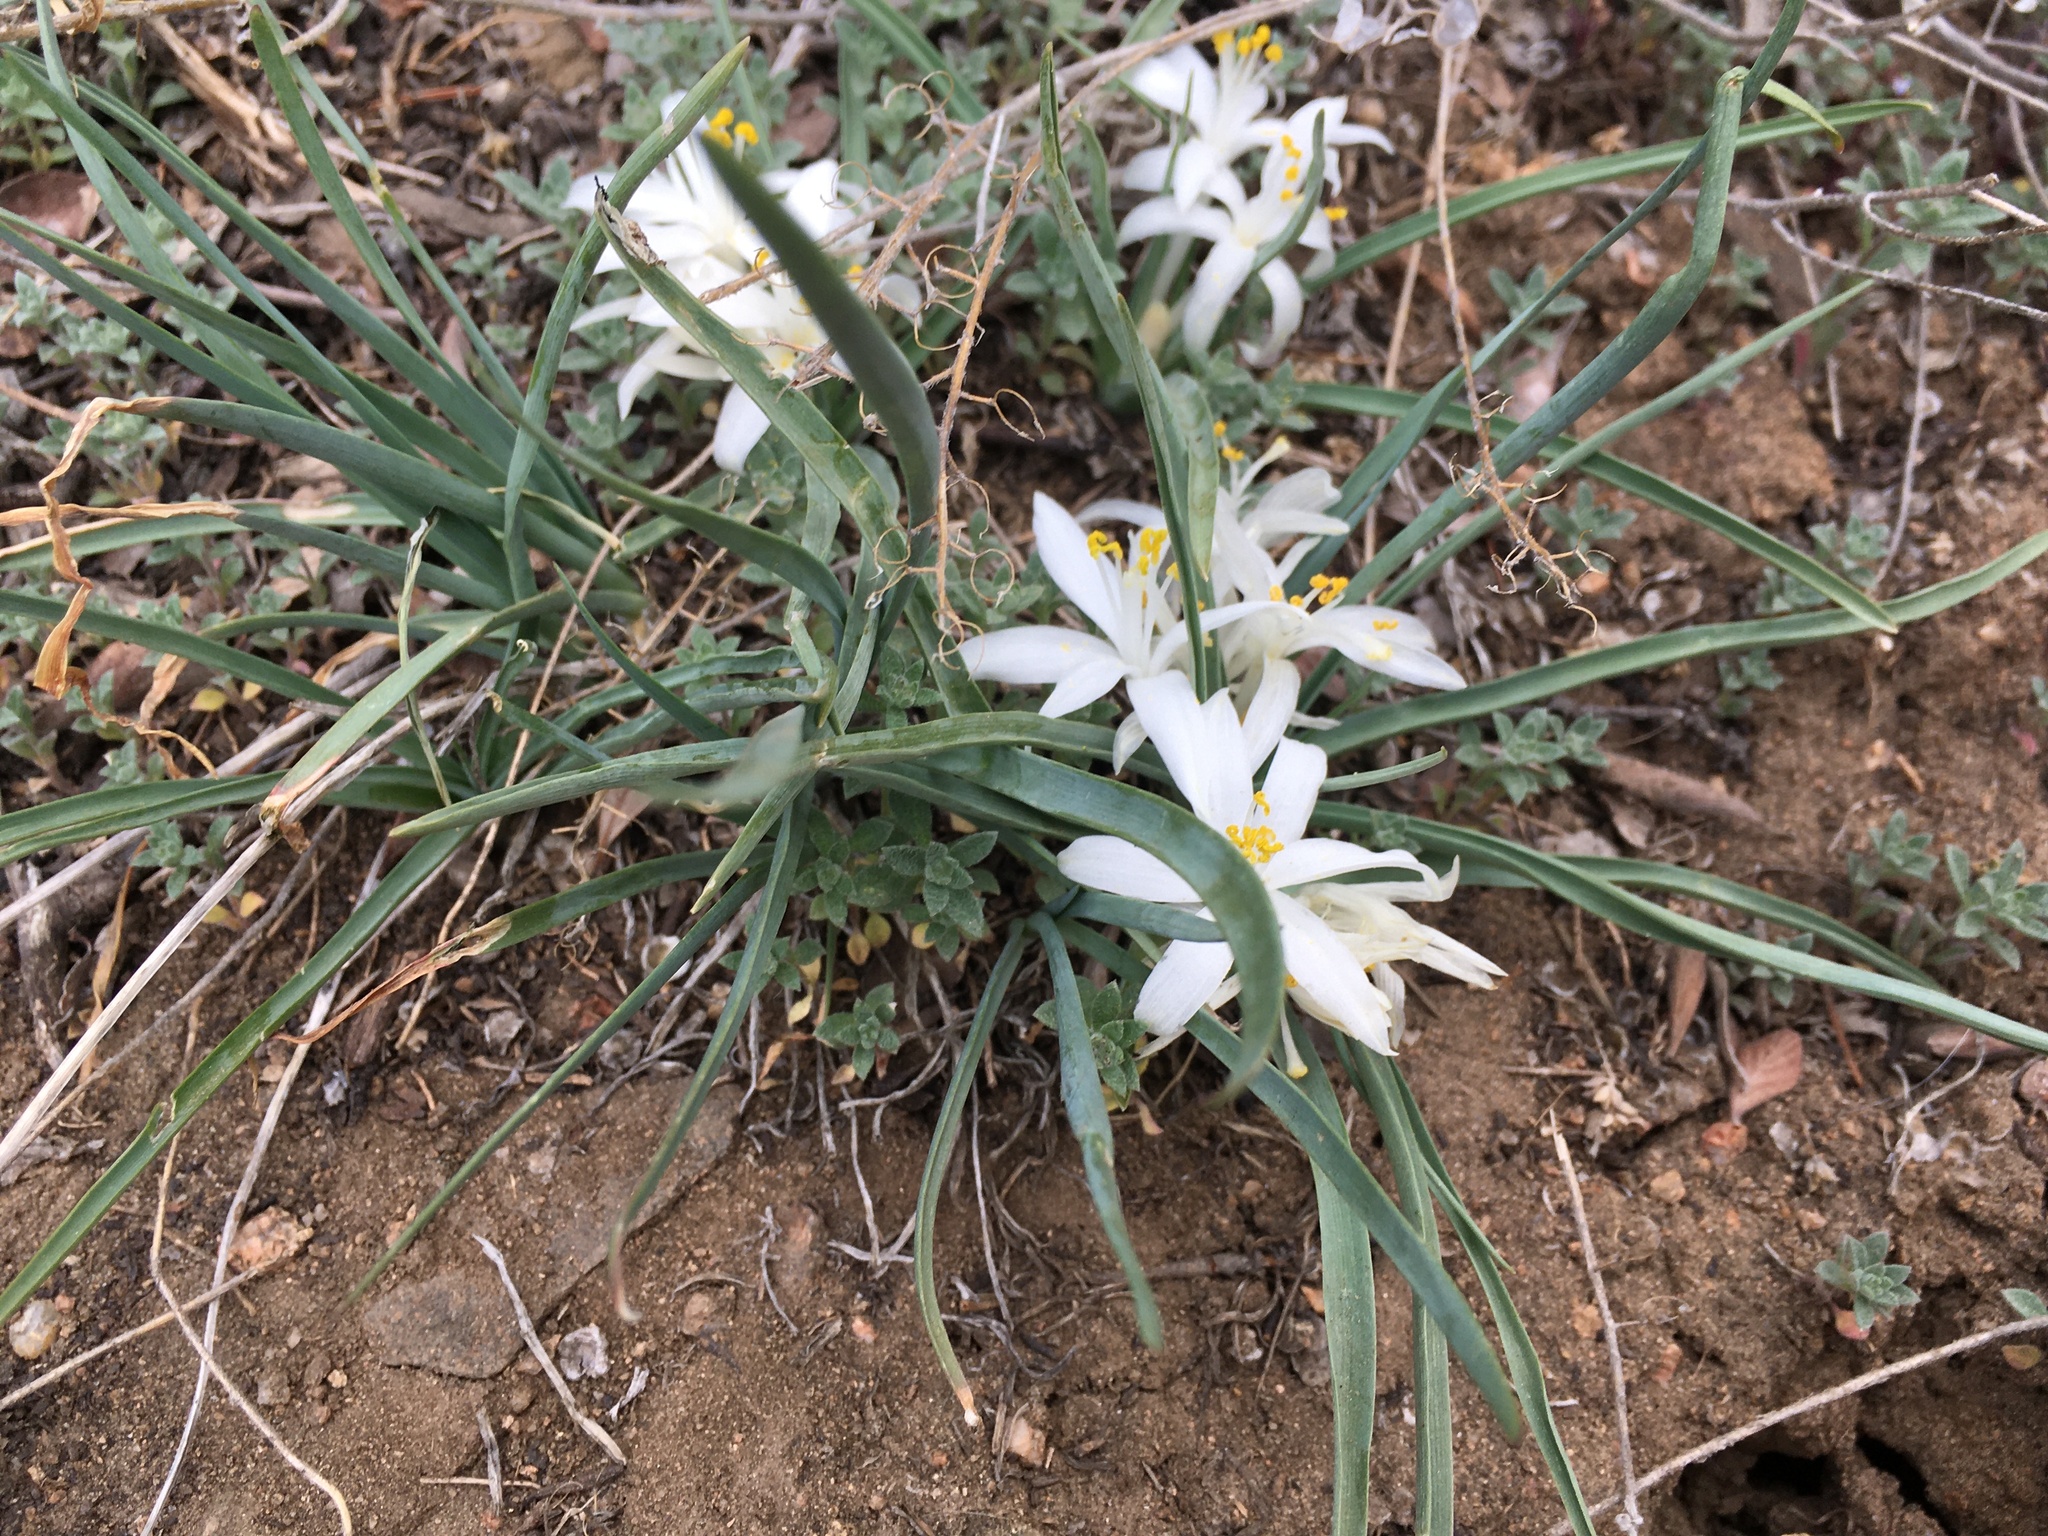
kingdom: Plantae
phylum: Tracheophyta
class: Liliopsida
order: Asparagales
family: Asparagaceae
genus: Leucocrinum
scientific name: Leucocrinum montanum
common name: Mountain-lily
